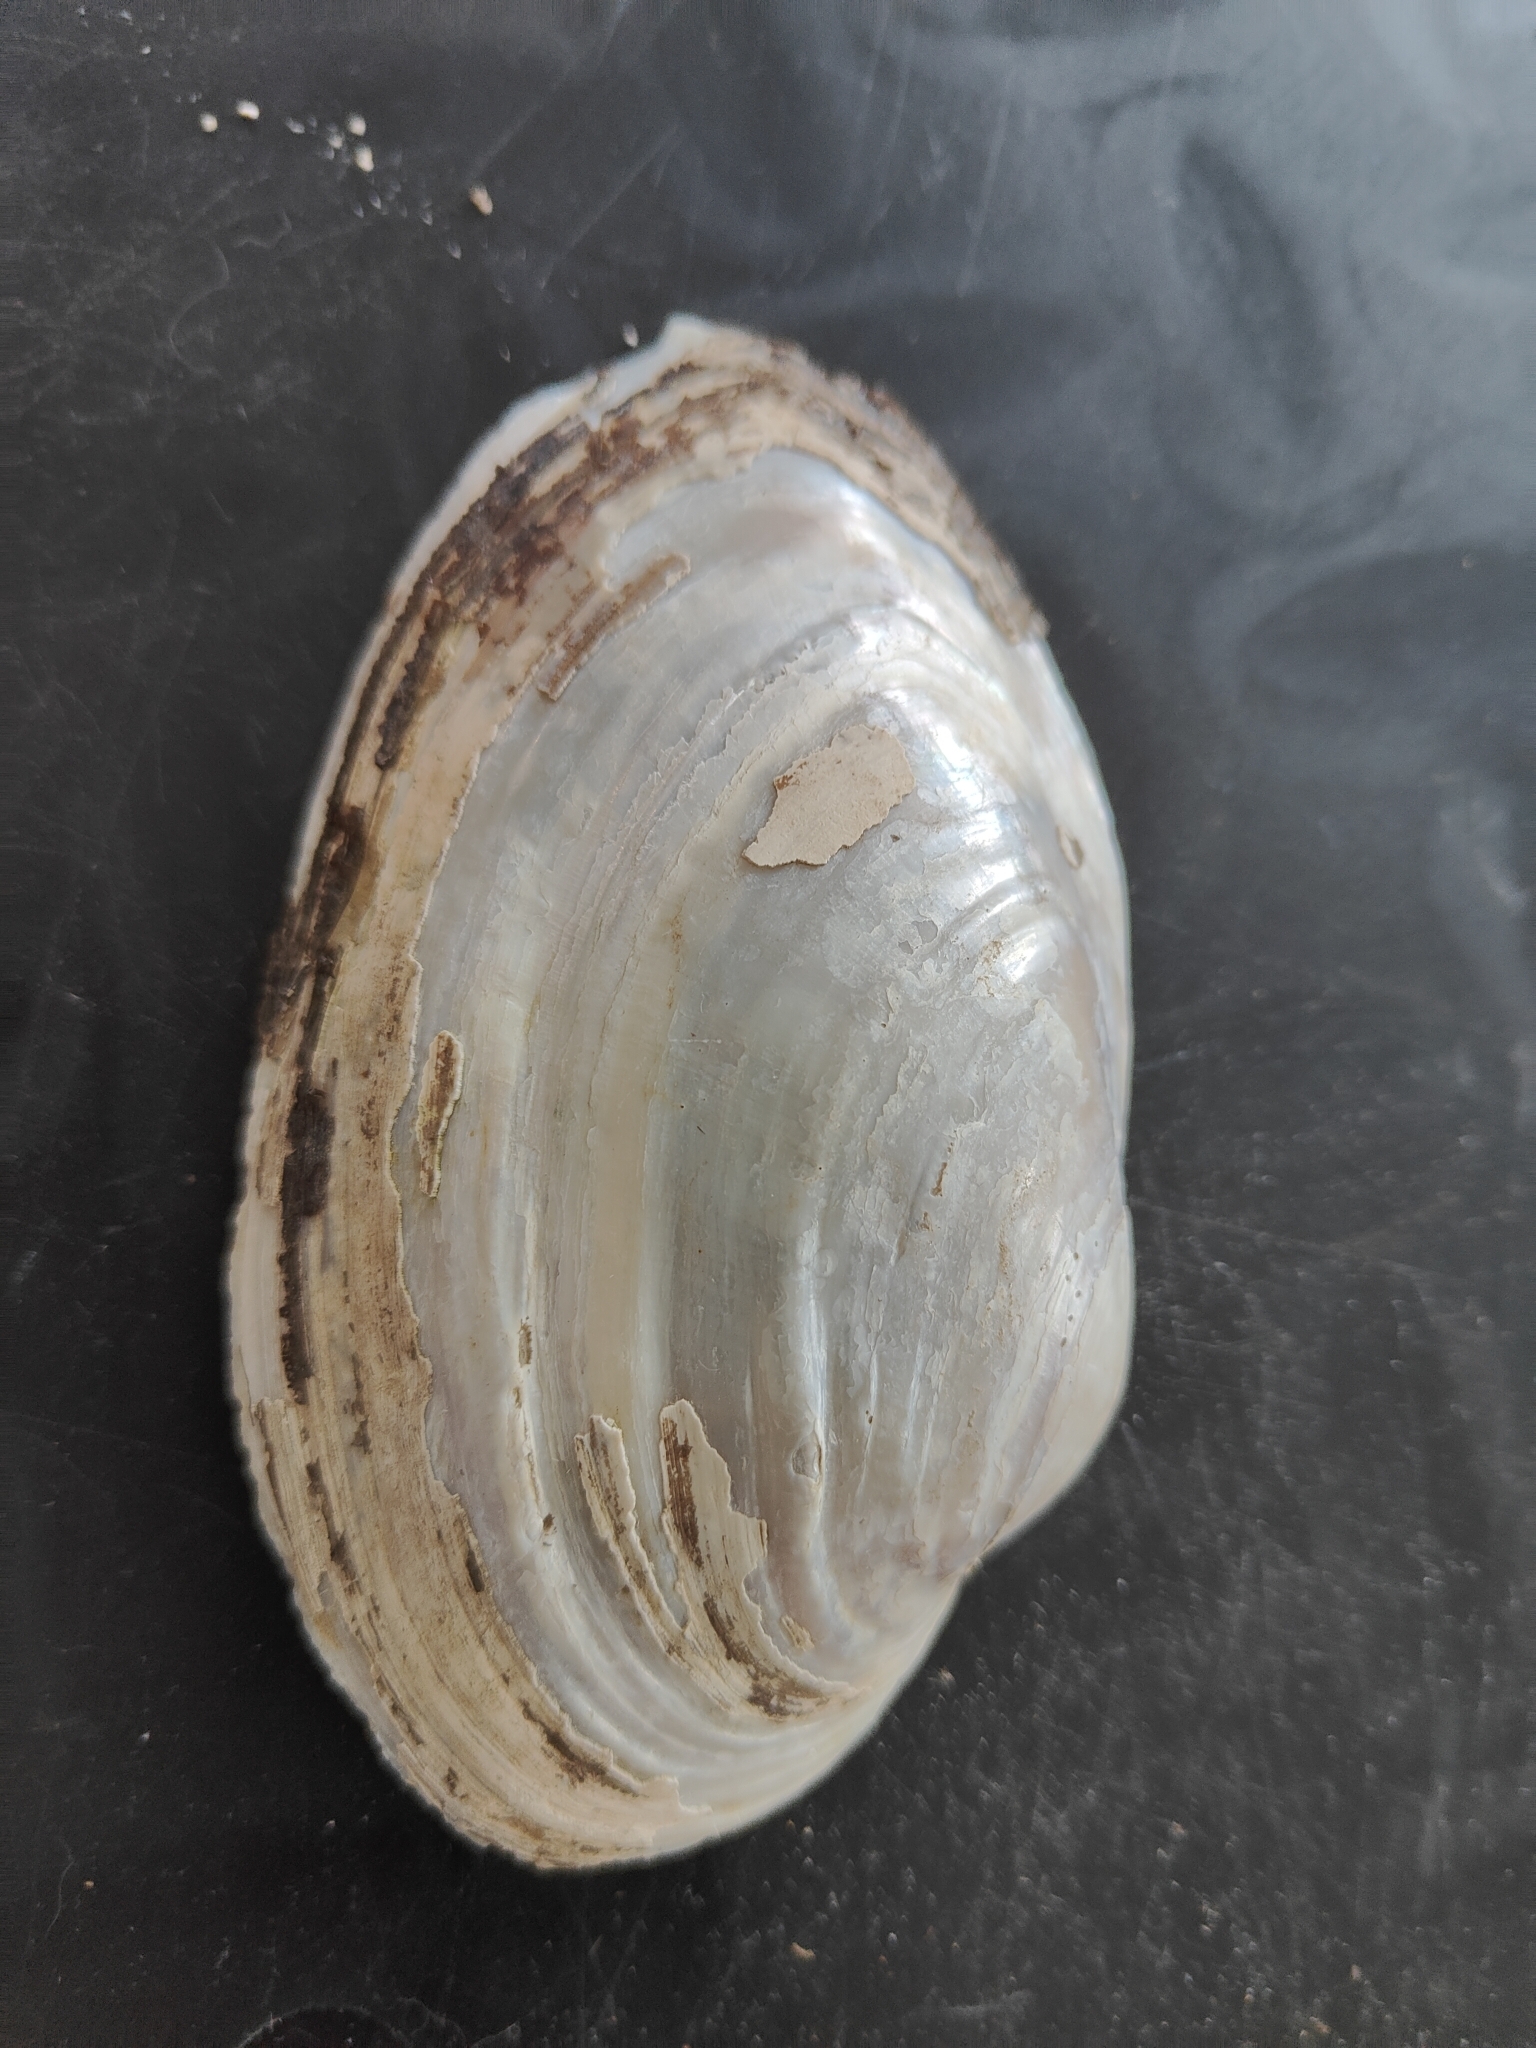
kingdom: Animalia
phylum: Mollusca
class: Bivalvia
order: Unionida
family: Unionidae
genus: Pyganodon
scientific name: Pyganodon grandis
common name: Giant floater
